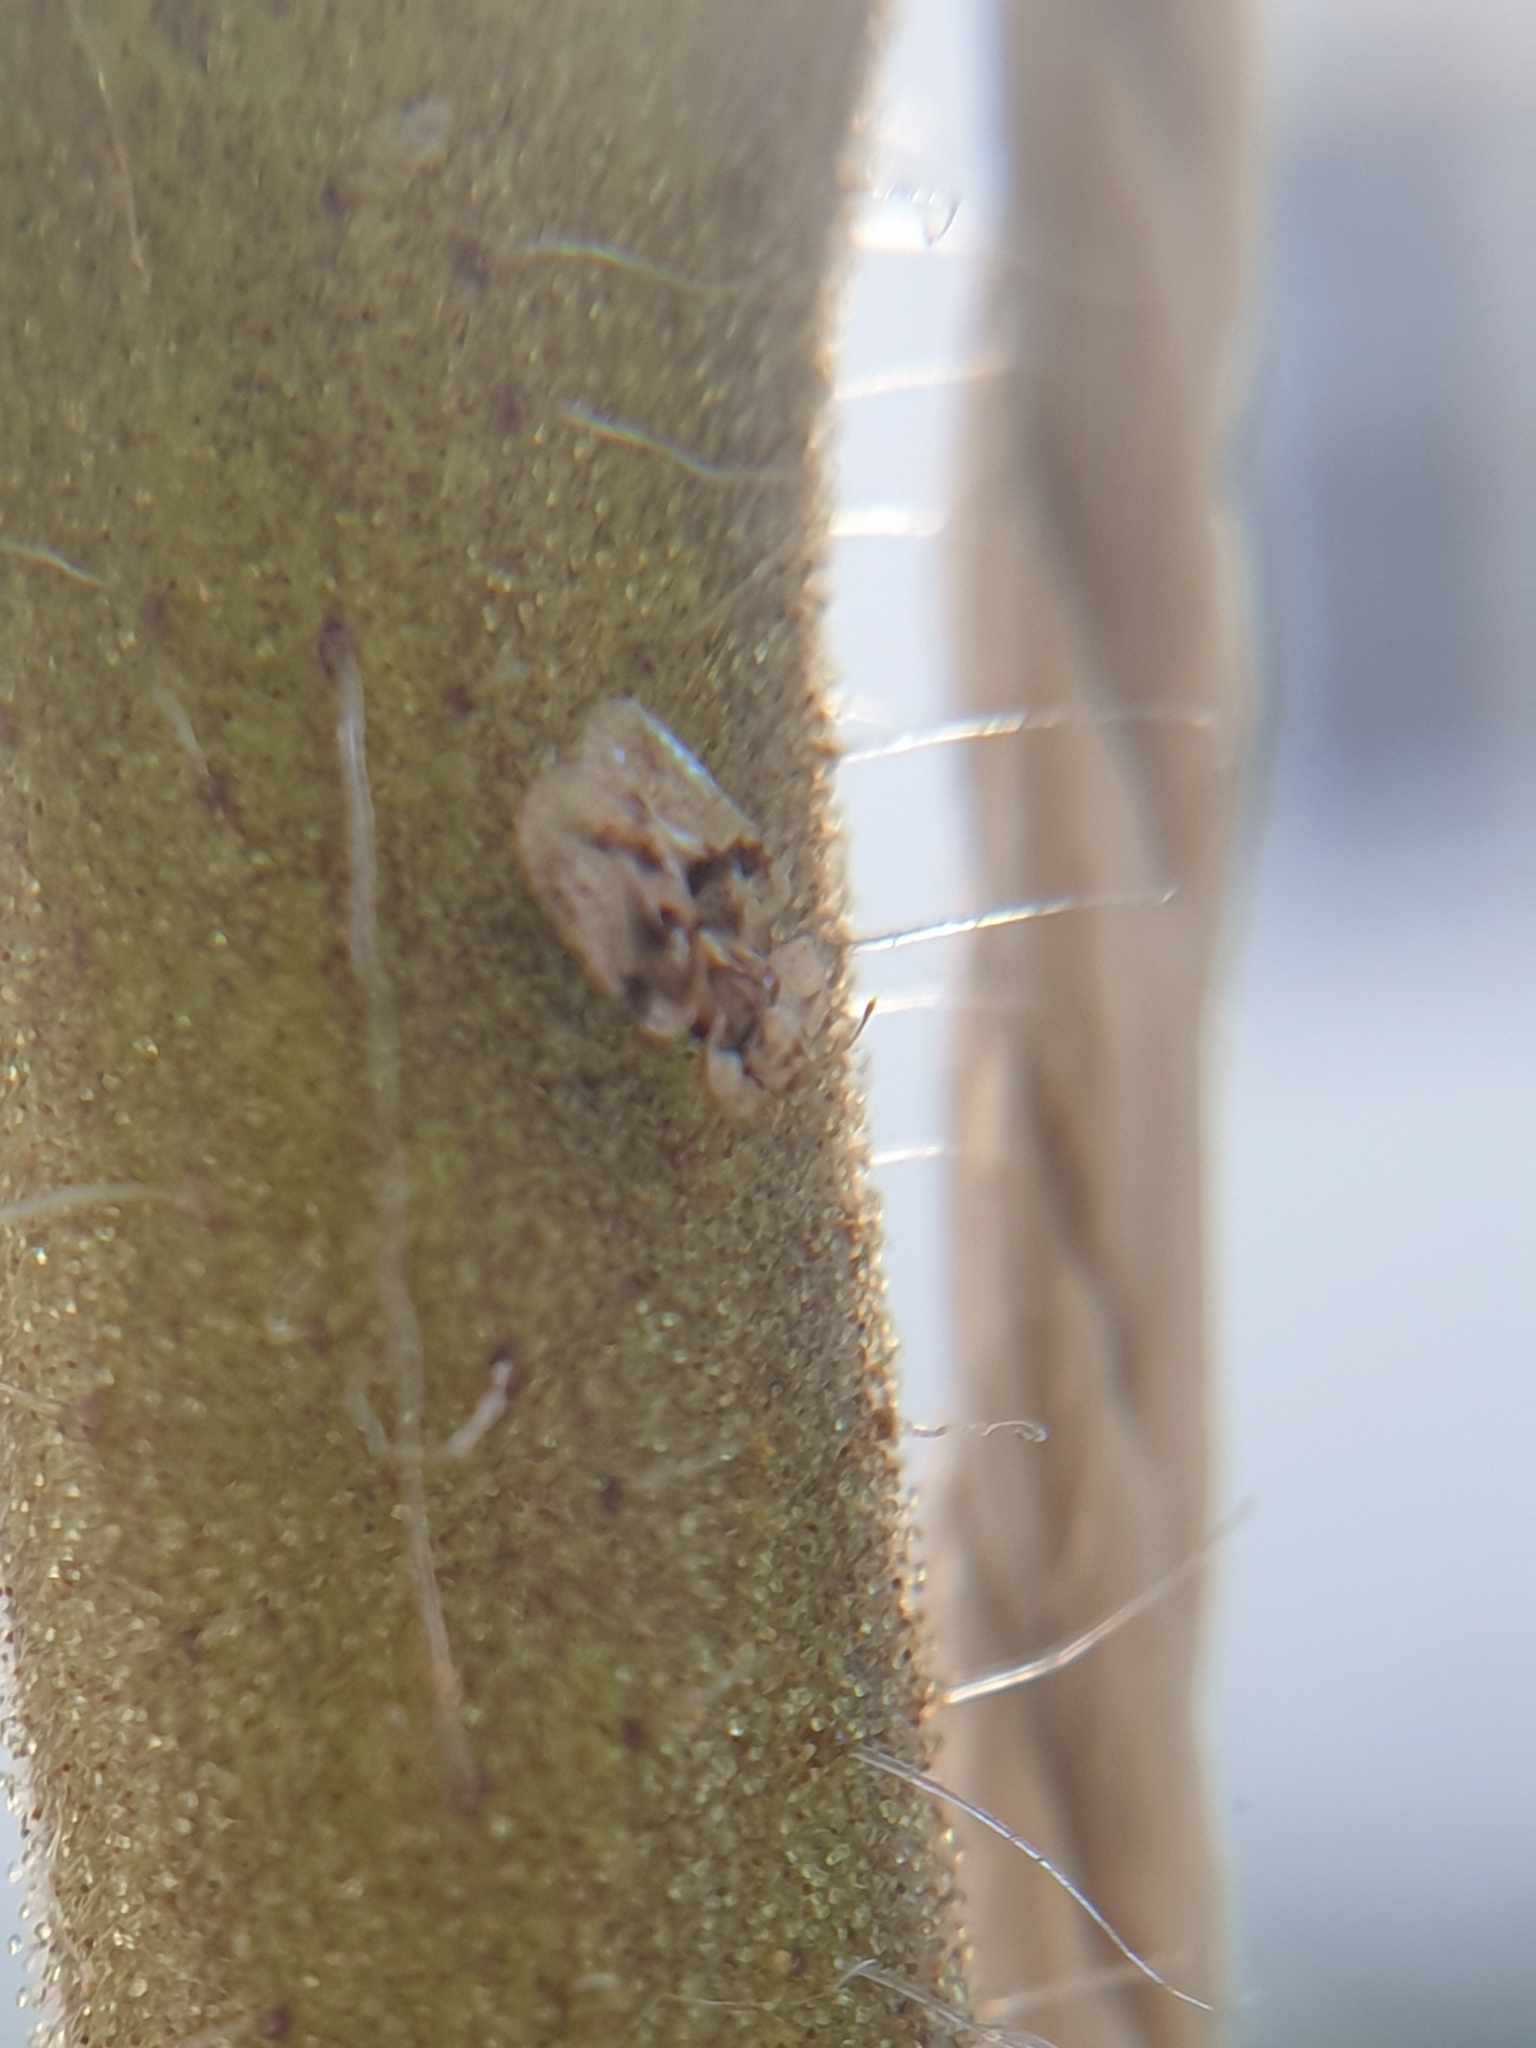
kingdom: Animalia
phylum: Arthropoda
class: Insecta
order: Hemiptera
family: Tingidae
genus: Corythucha
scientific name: Corythucha arcuata
